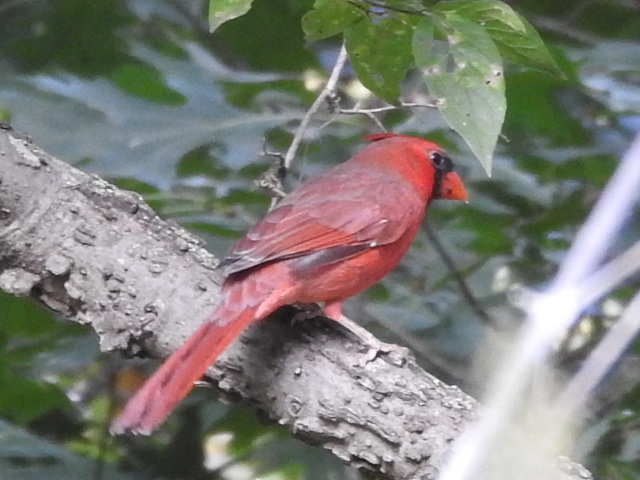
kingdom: Animalia
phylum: Chordata
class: Aves
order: Passeriformes
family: Cardinalidae
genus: Cardinalis
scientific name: Cardinalis cardinalis
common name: Northern cardinal
